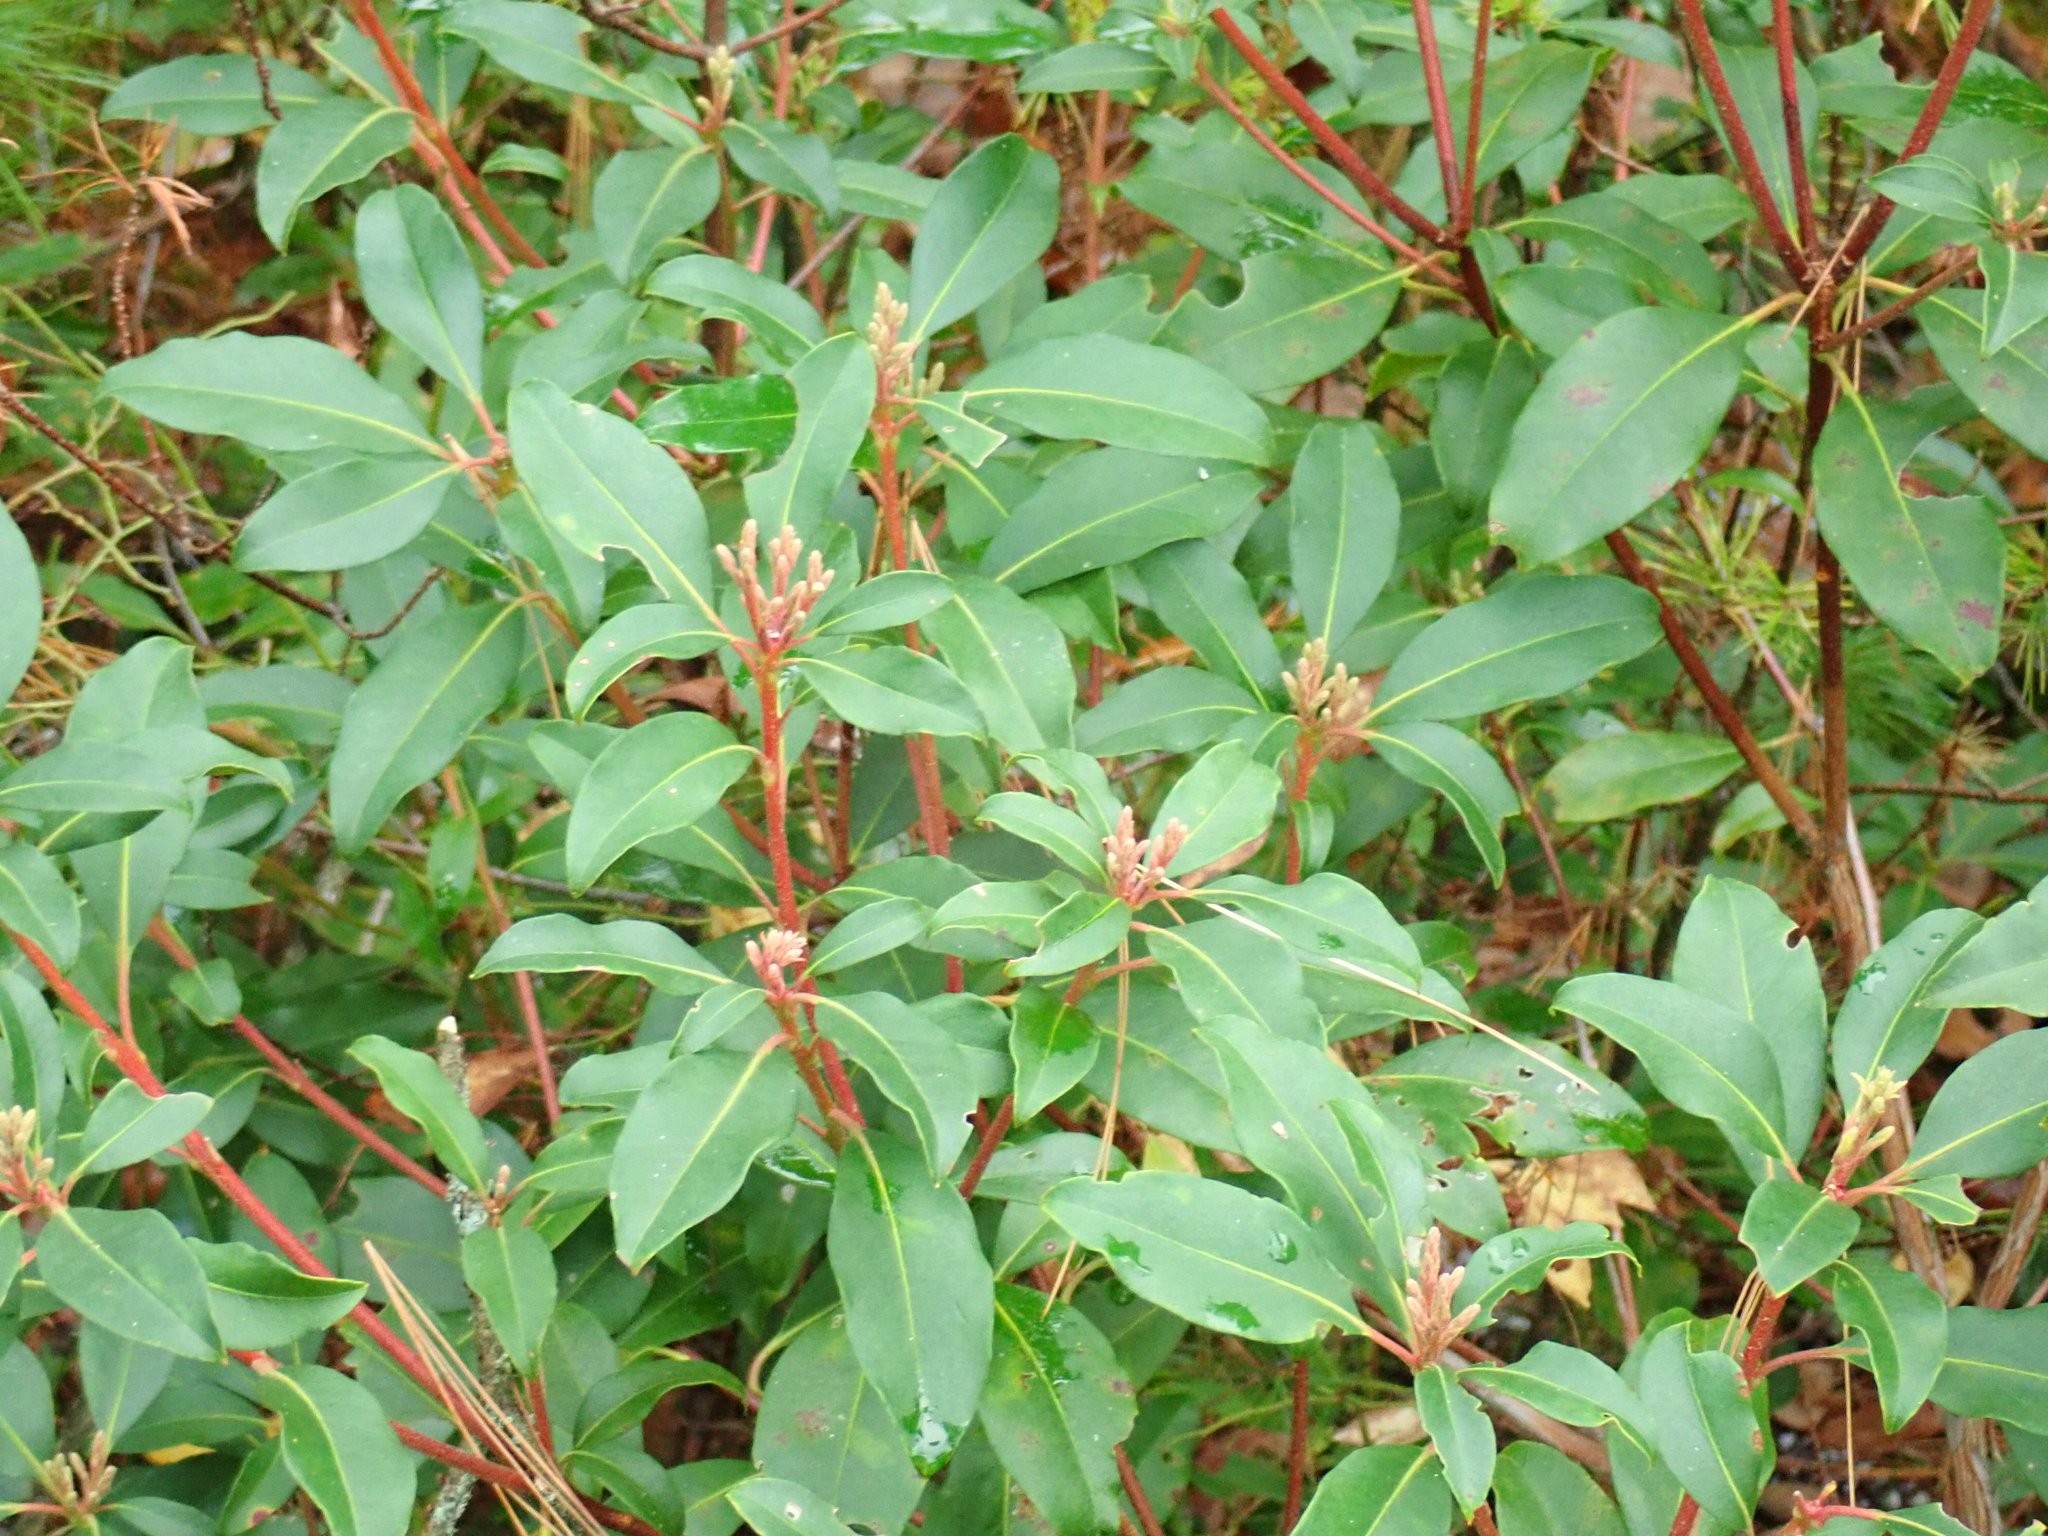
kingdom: Plantae
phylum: Tracheophyta
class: Magnoliopsida
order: Ericales
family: Ericaceae
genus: Kalmia
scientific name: Kalmia latifolia
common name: Mountain-laurel
